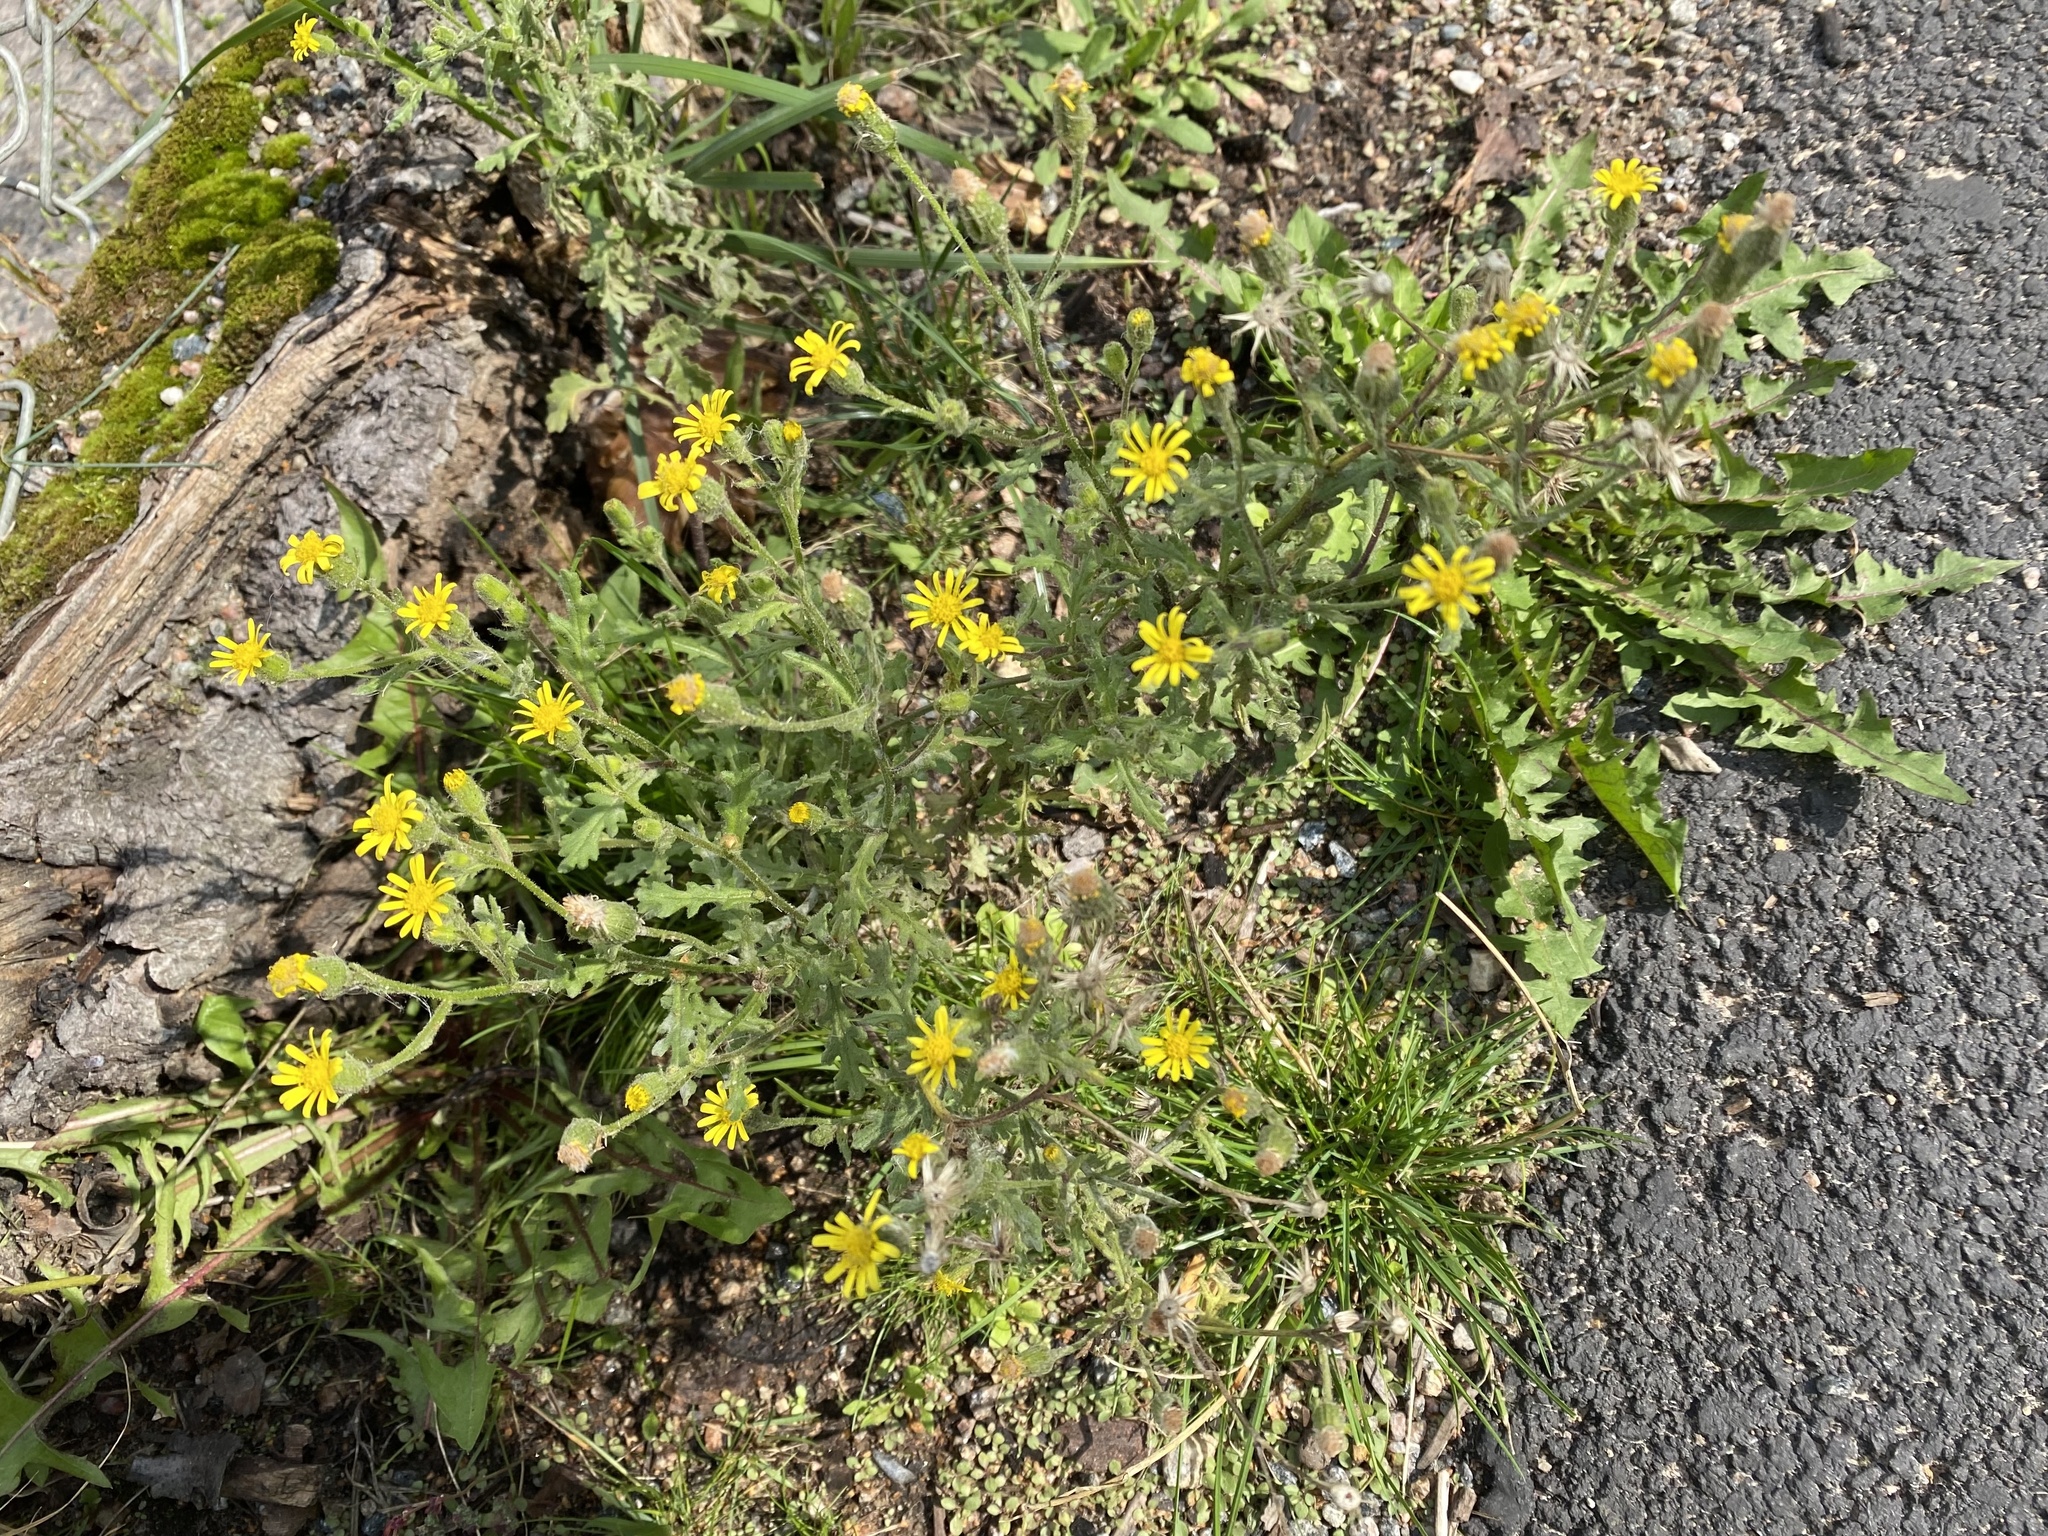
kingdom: Plantae
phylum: Tracheophyta
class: Magnoliopsida
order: Asterales
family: Asteraceae
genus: Senecio
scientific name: Senecio viscosus
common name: Sticky groundsel
